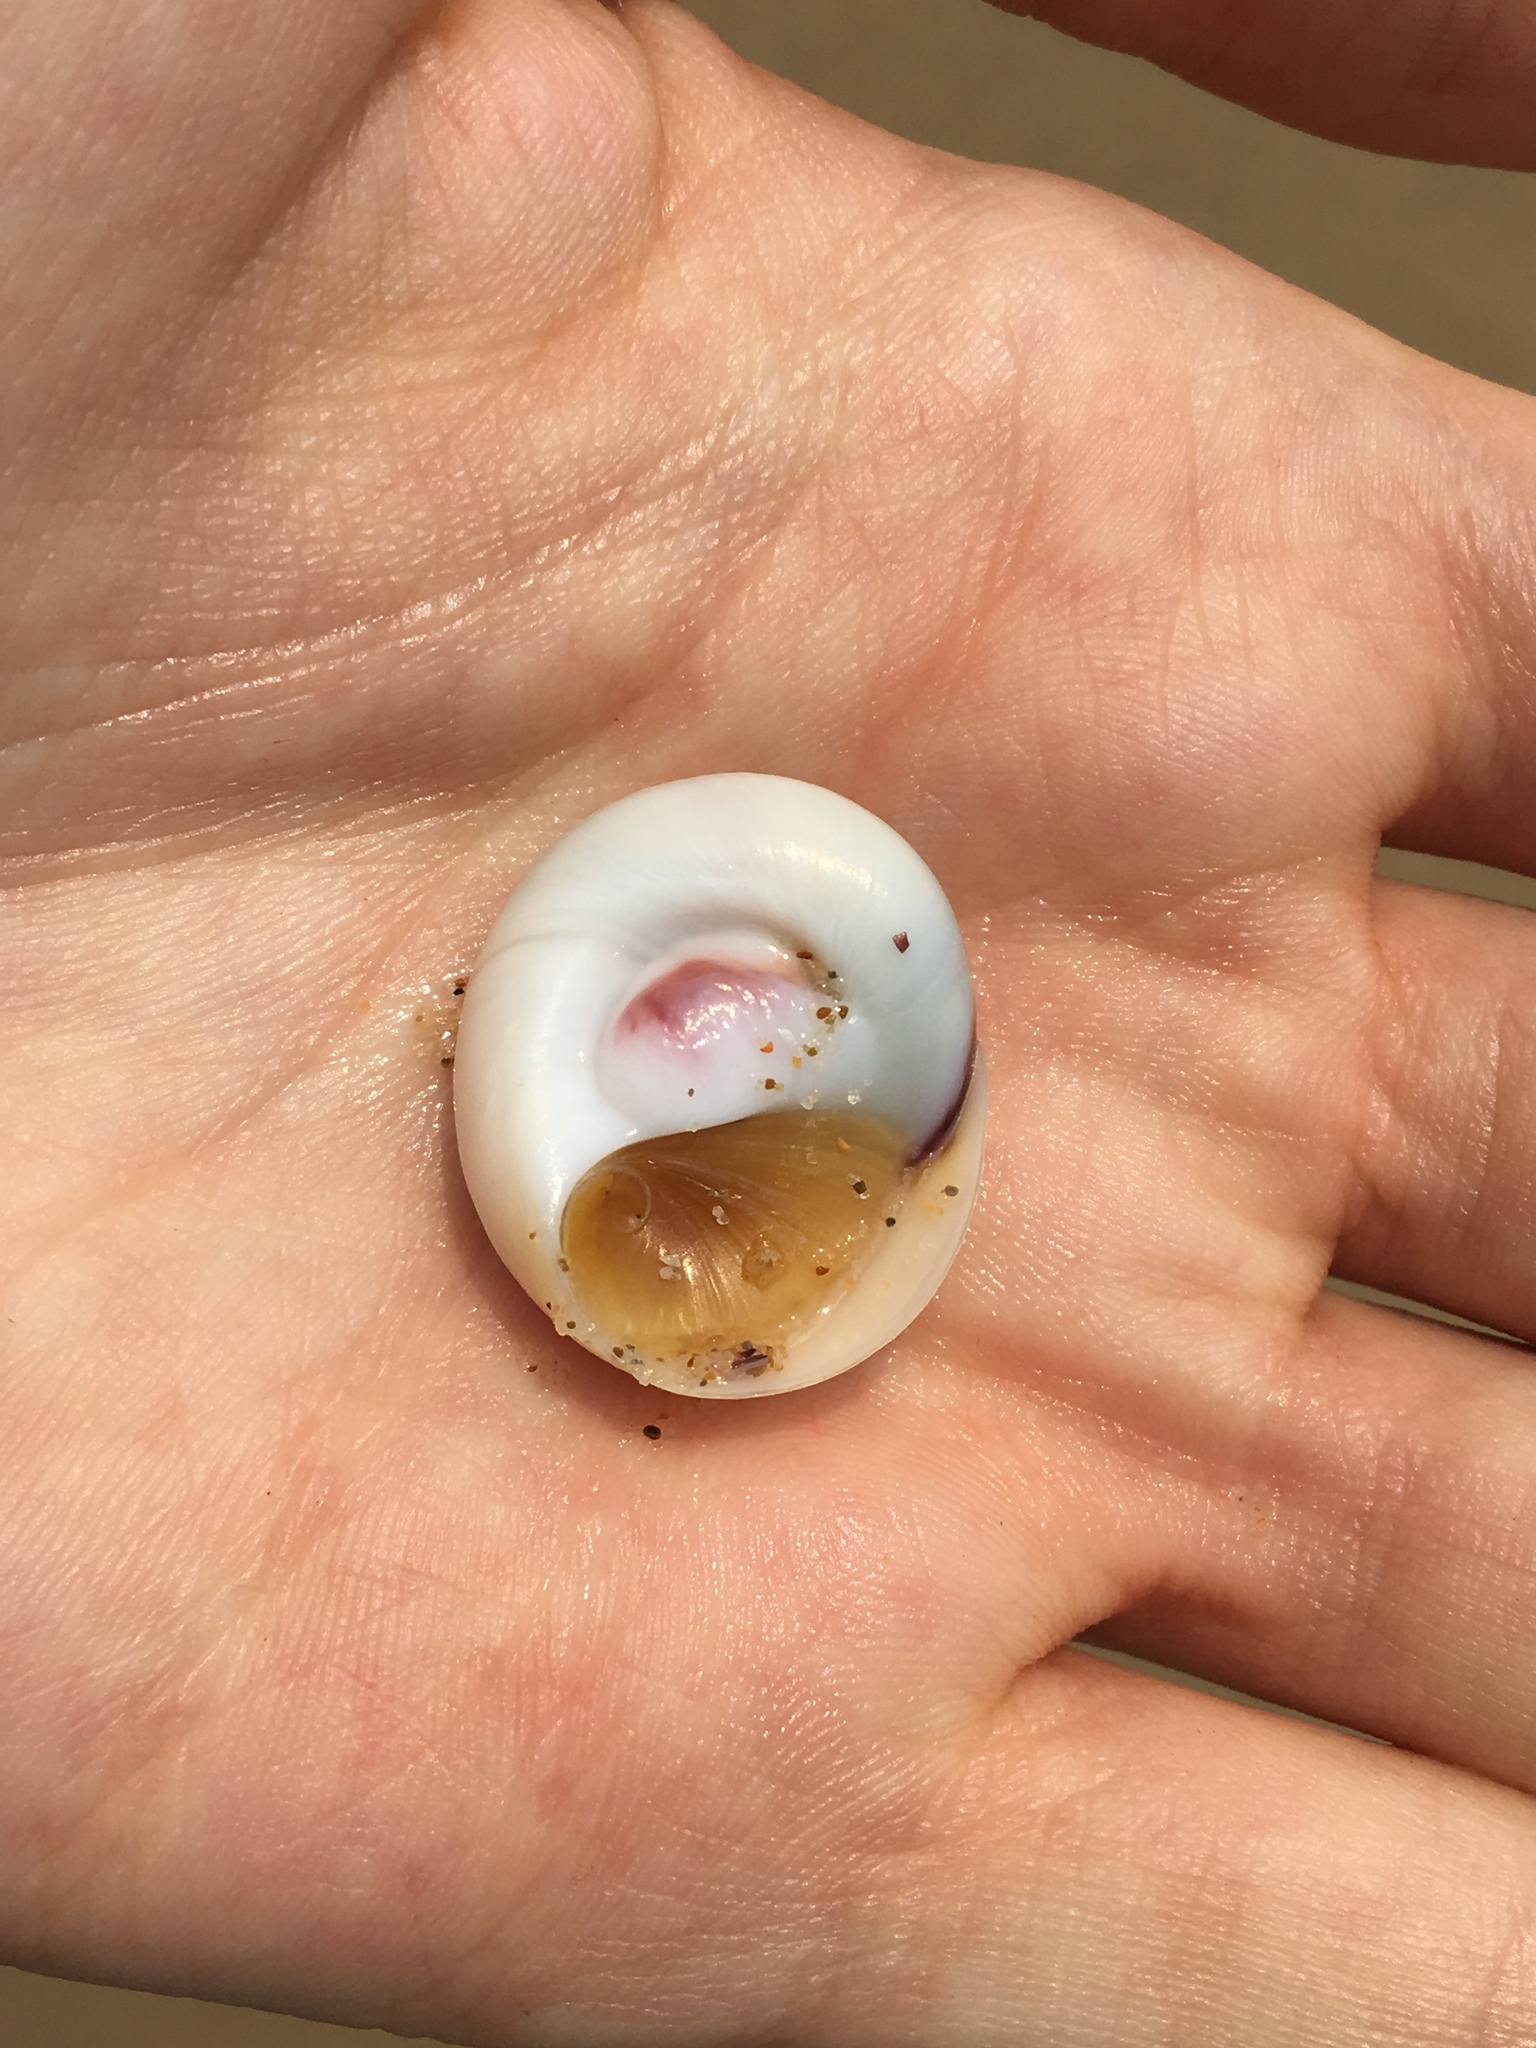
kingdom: Animalia
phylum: Mollusca
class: Gastropoda
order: Littorinimorpha
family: Naticidae
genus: Conuber
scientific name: Conuber incei
